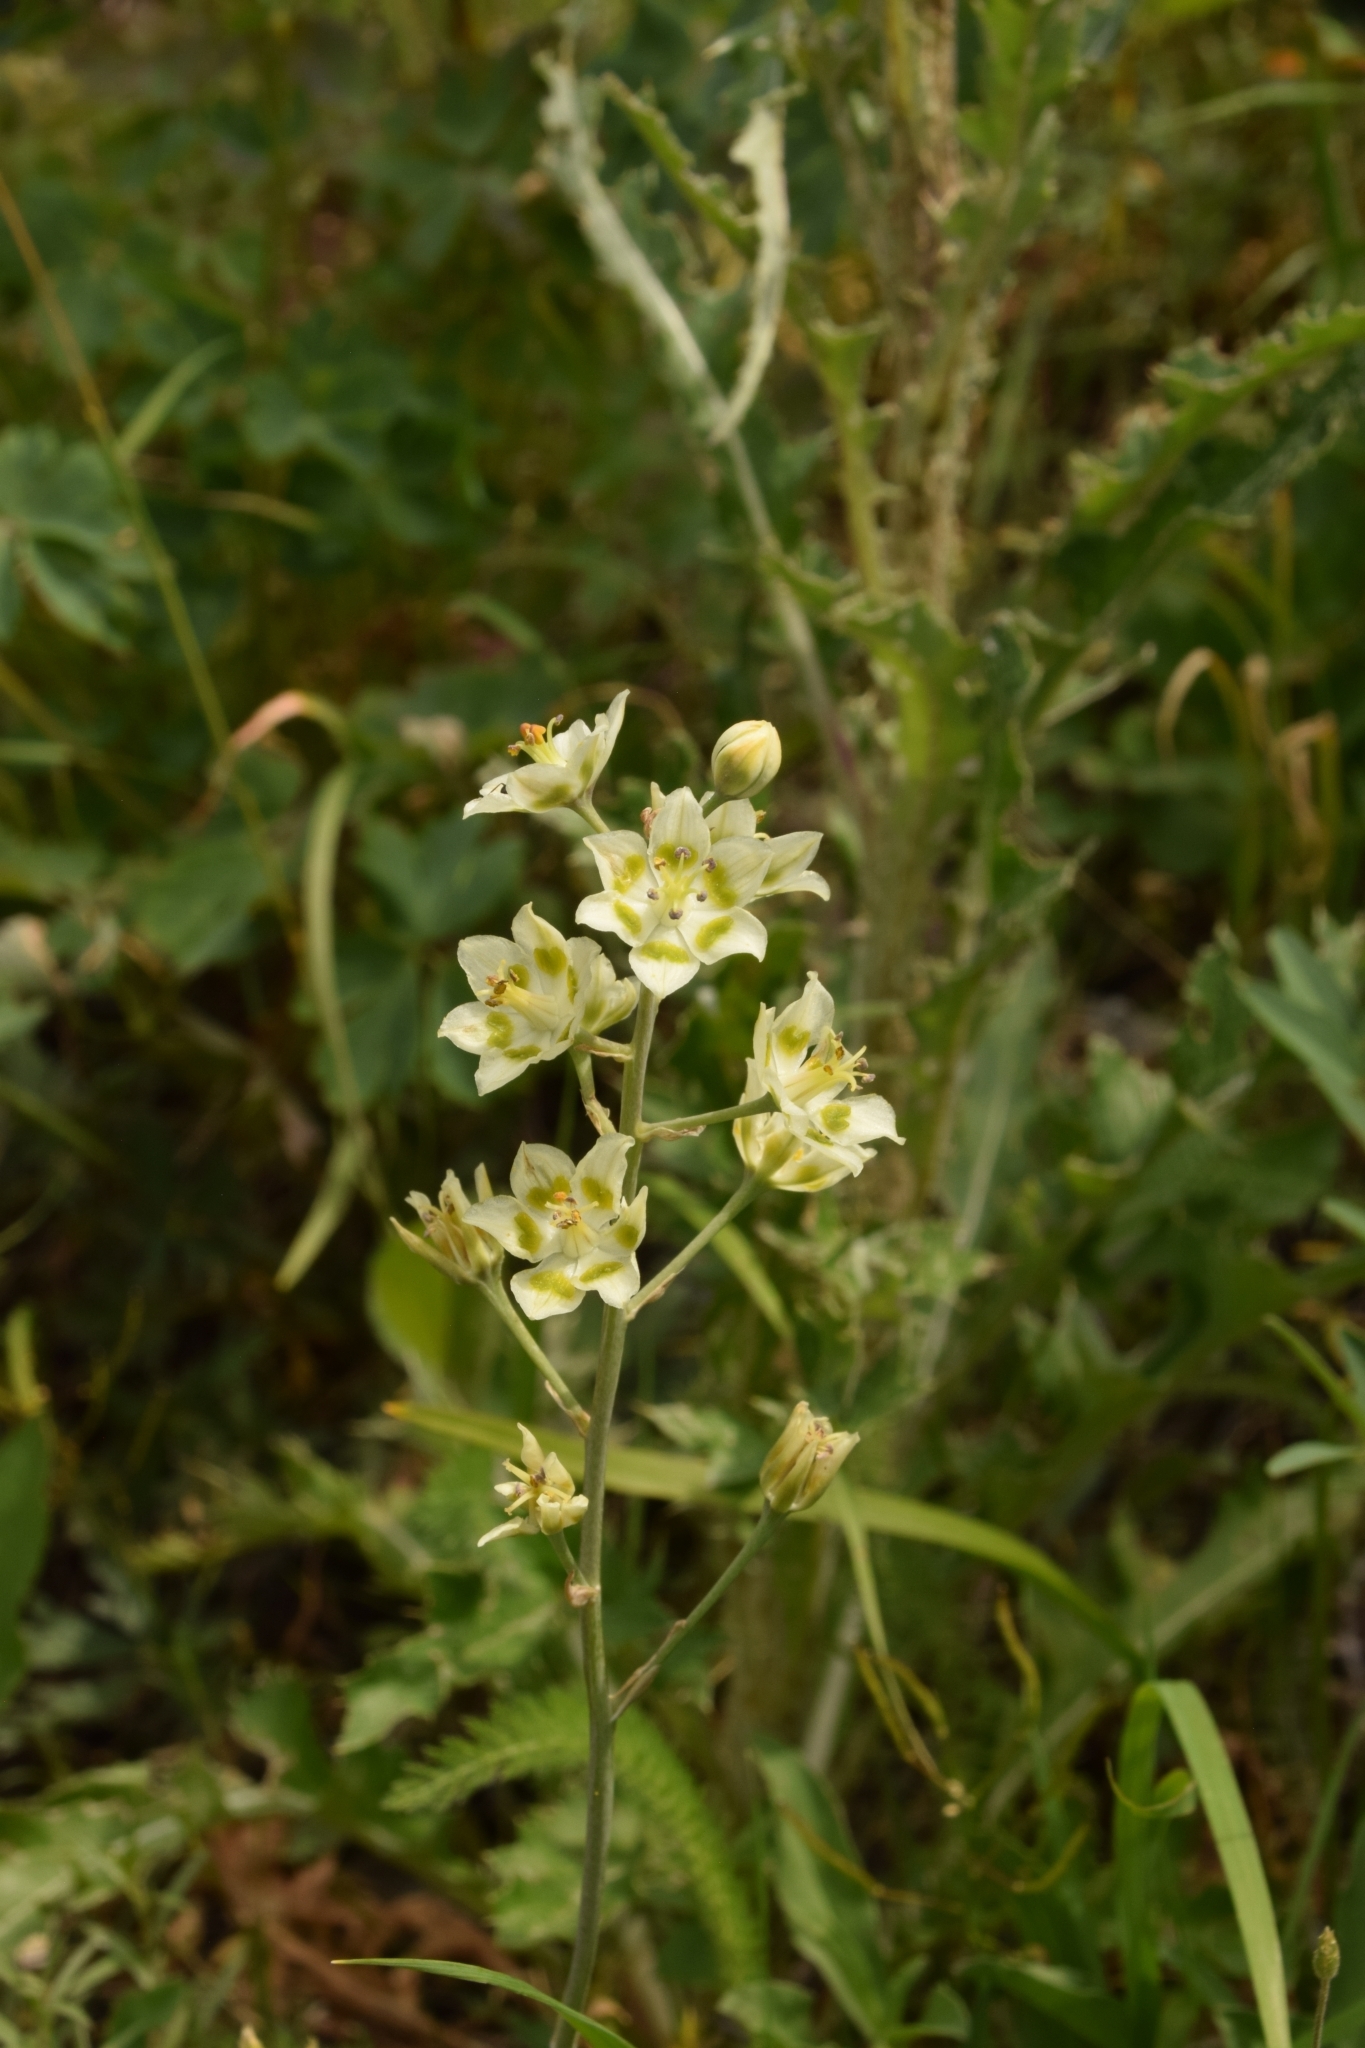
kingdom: Plantae
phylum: Tracheophyta
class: Liliopsida
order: Liliales
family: Melanthiaceae
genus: Anticlea
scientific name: Anticlea elegans
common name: Mountain death camas
